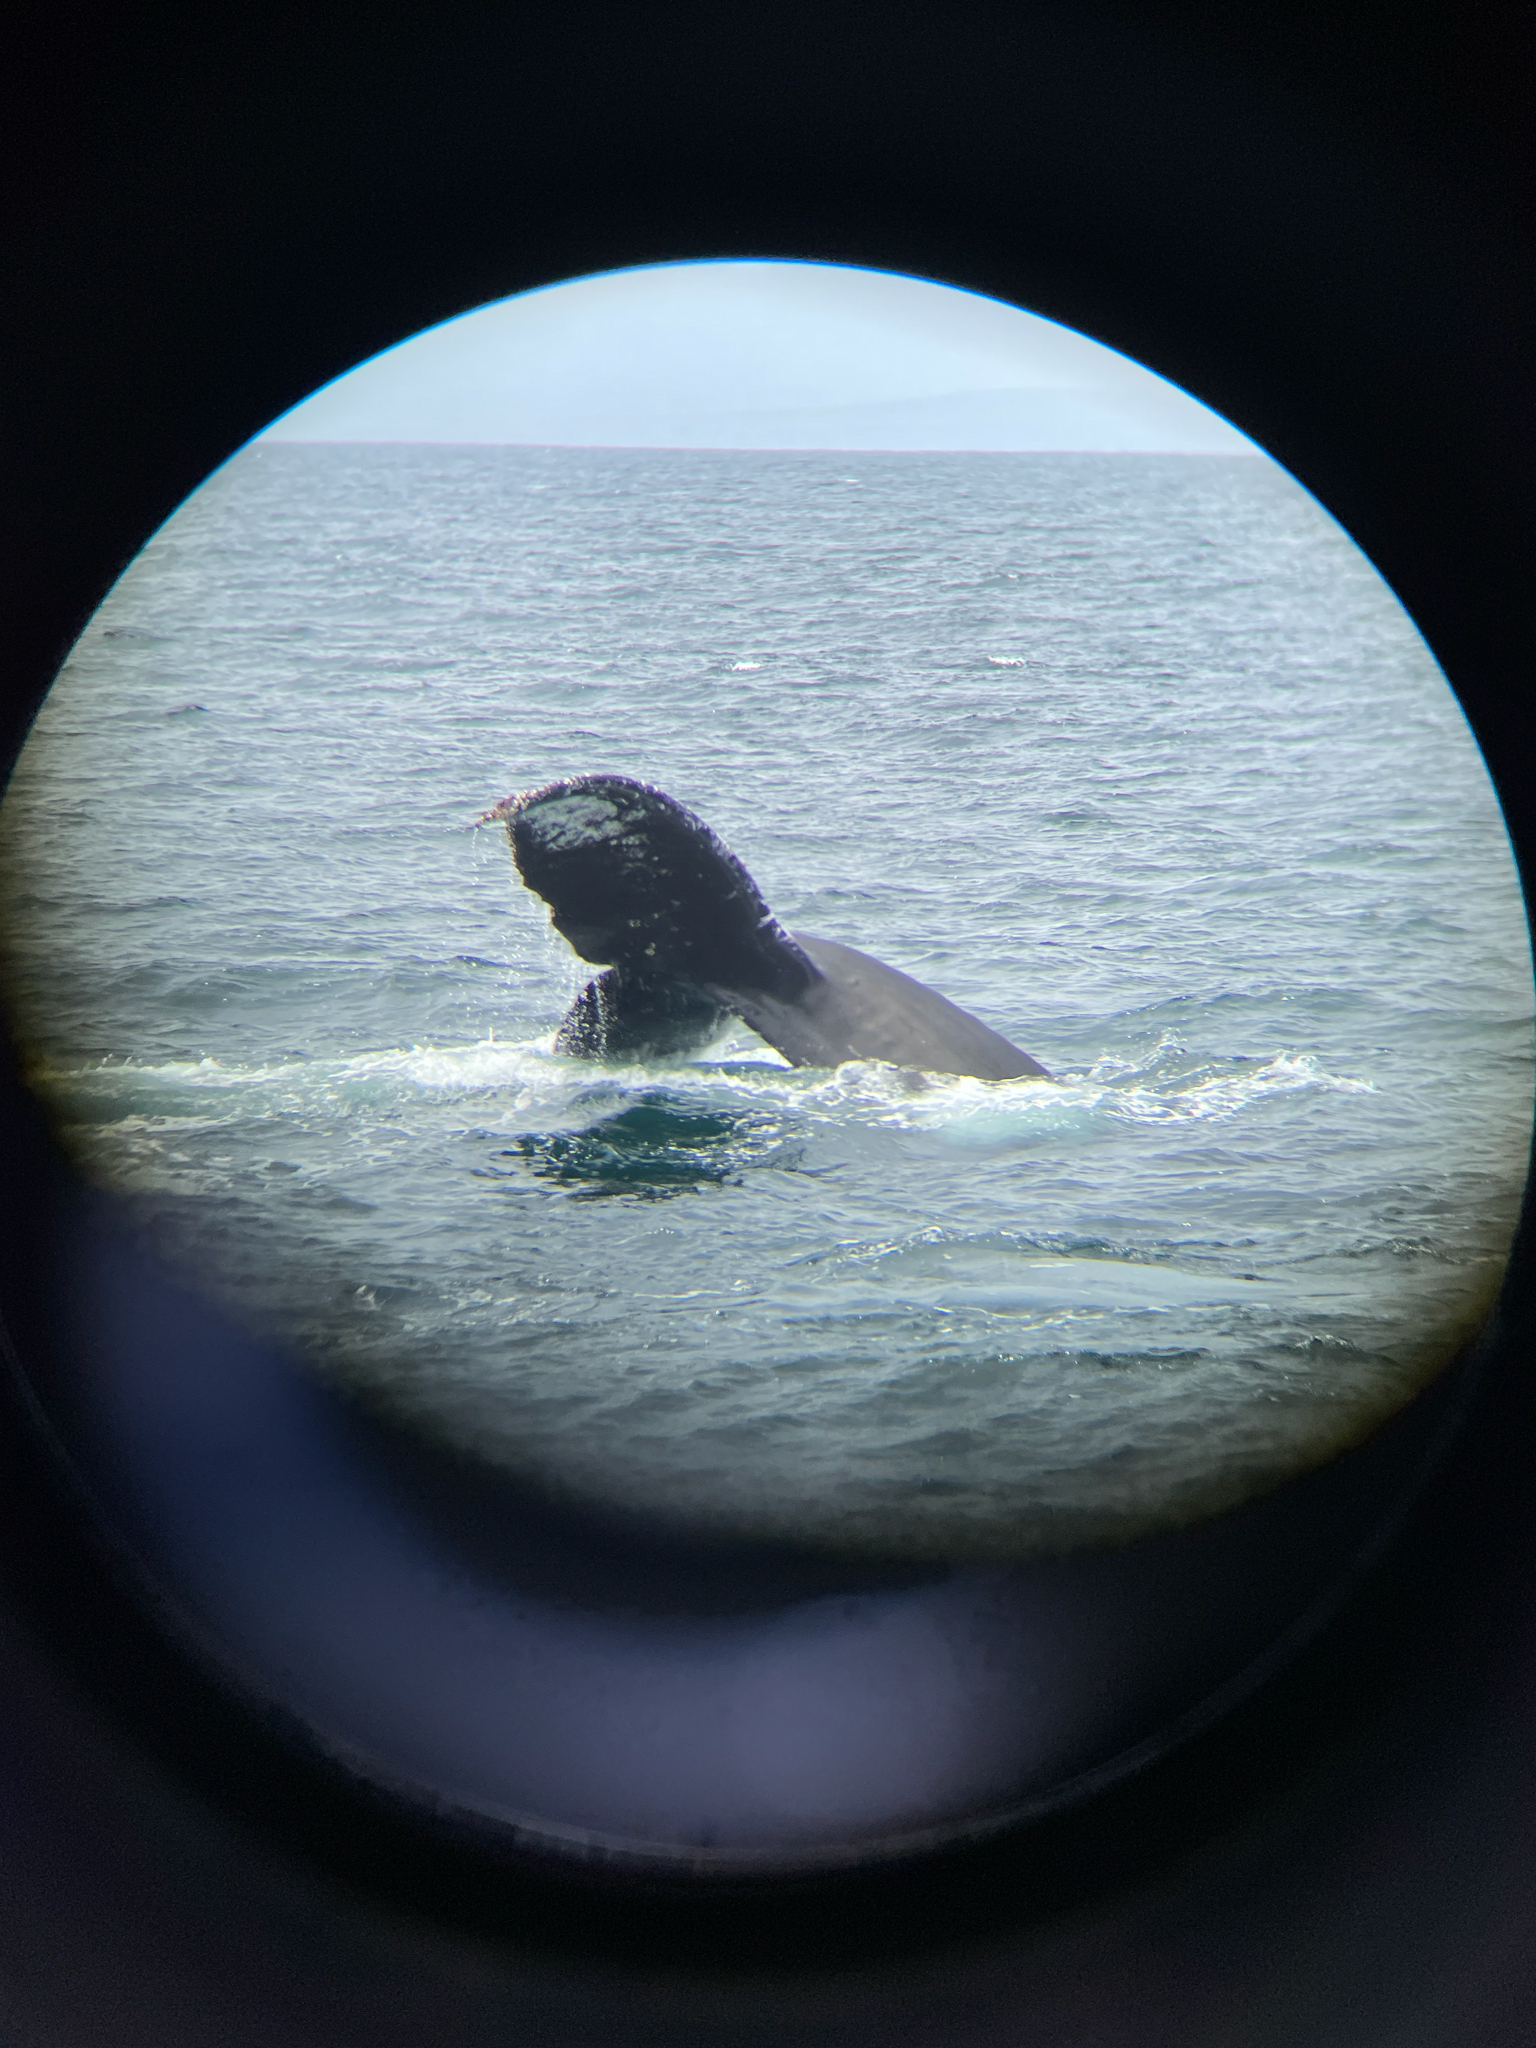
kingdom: Animalia
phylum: Chordata
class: Mammalia
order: Cetacea
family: Balaenopteridae
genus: Megaptera
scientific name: Megaptera novaeangliae
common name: Humpback whale
